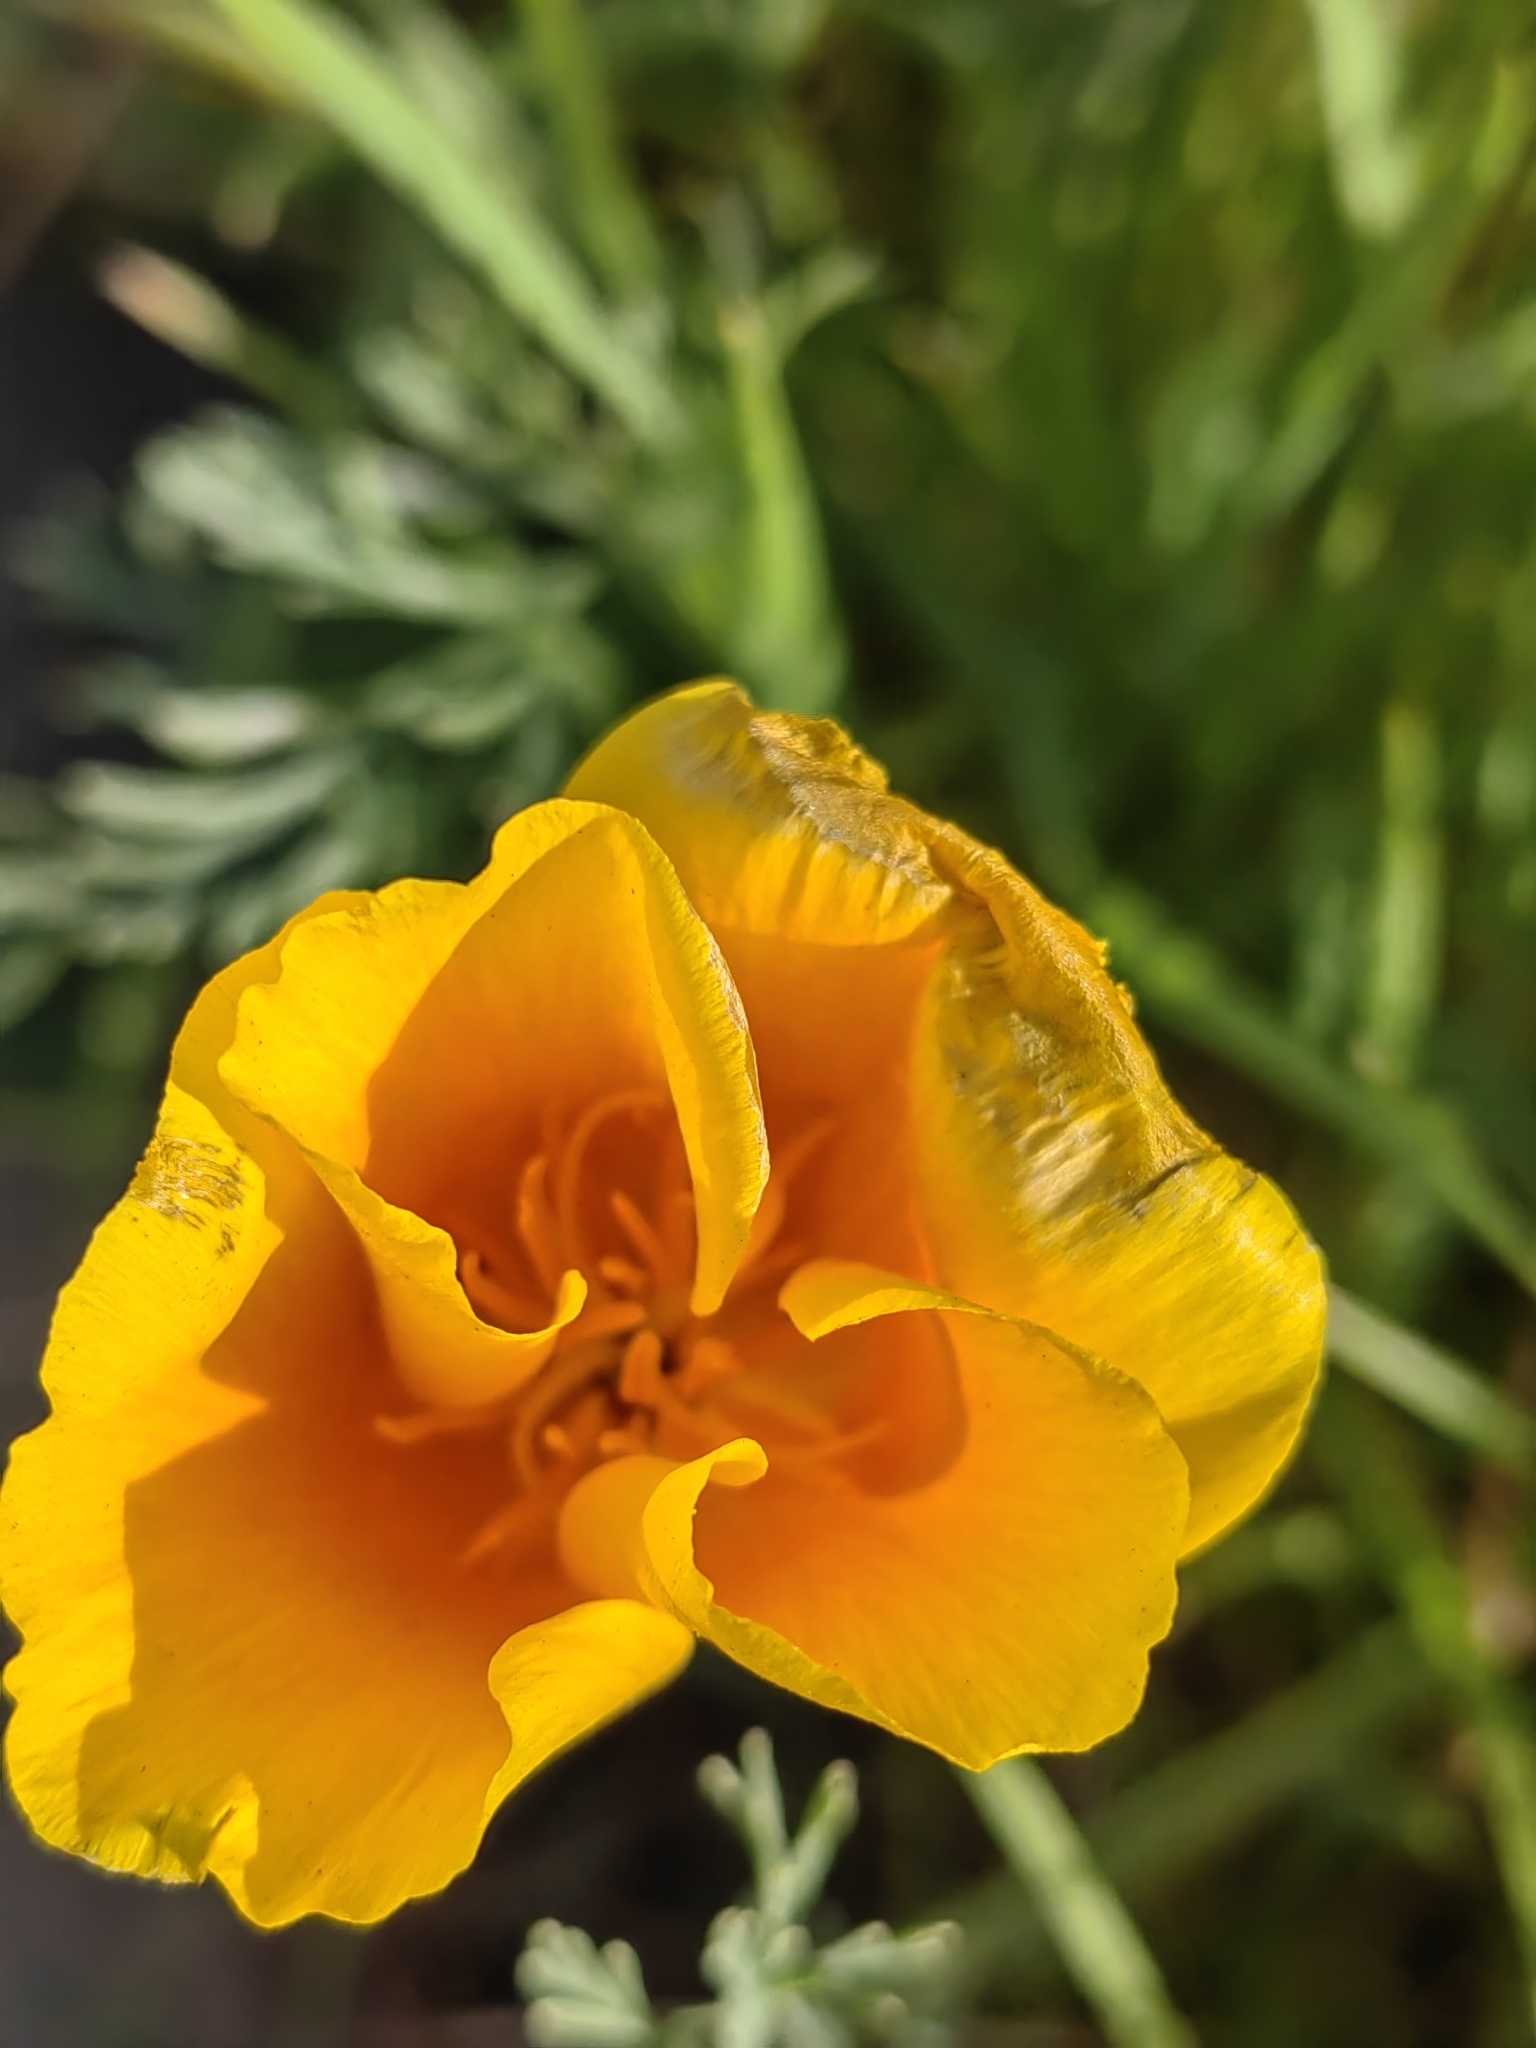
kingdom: Plantae
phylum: Tracheophyta
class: Magnoliopsida
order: Ranunculales
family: Papaveraceae
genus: Eschscholzia
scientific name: Eschscholzia californica
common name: California poppy
